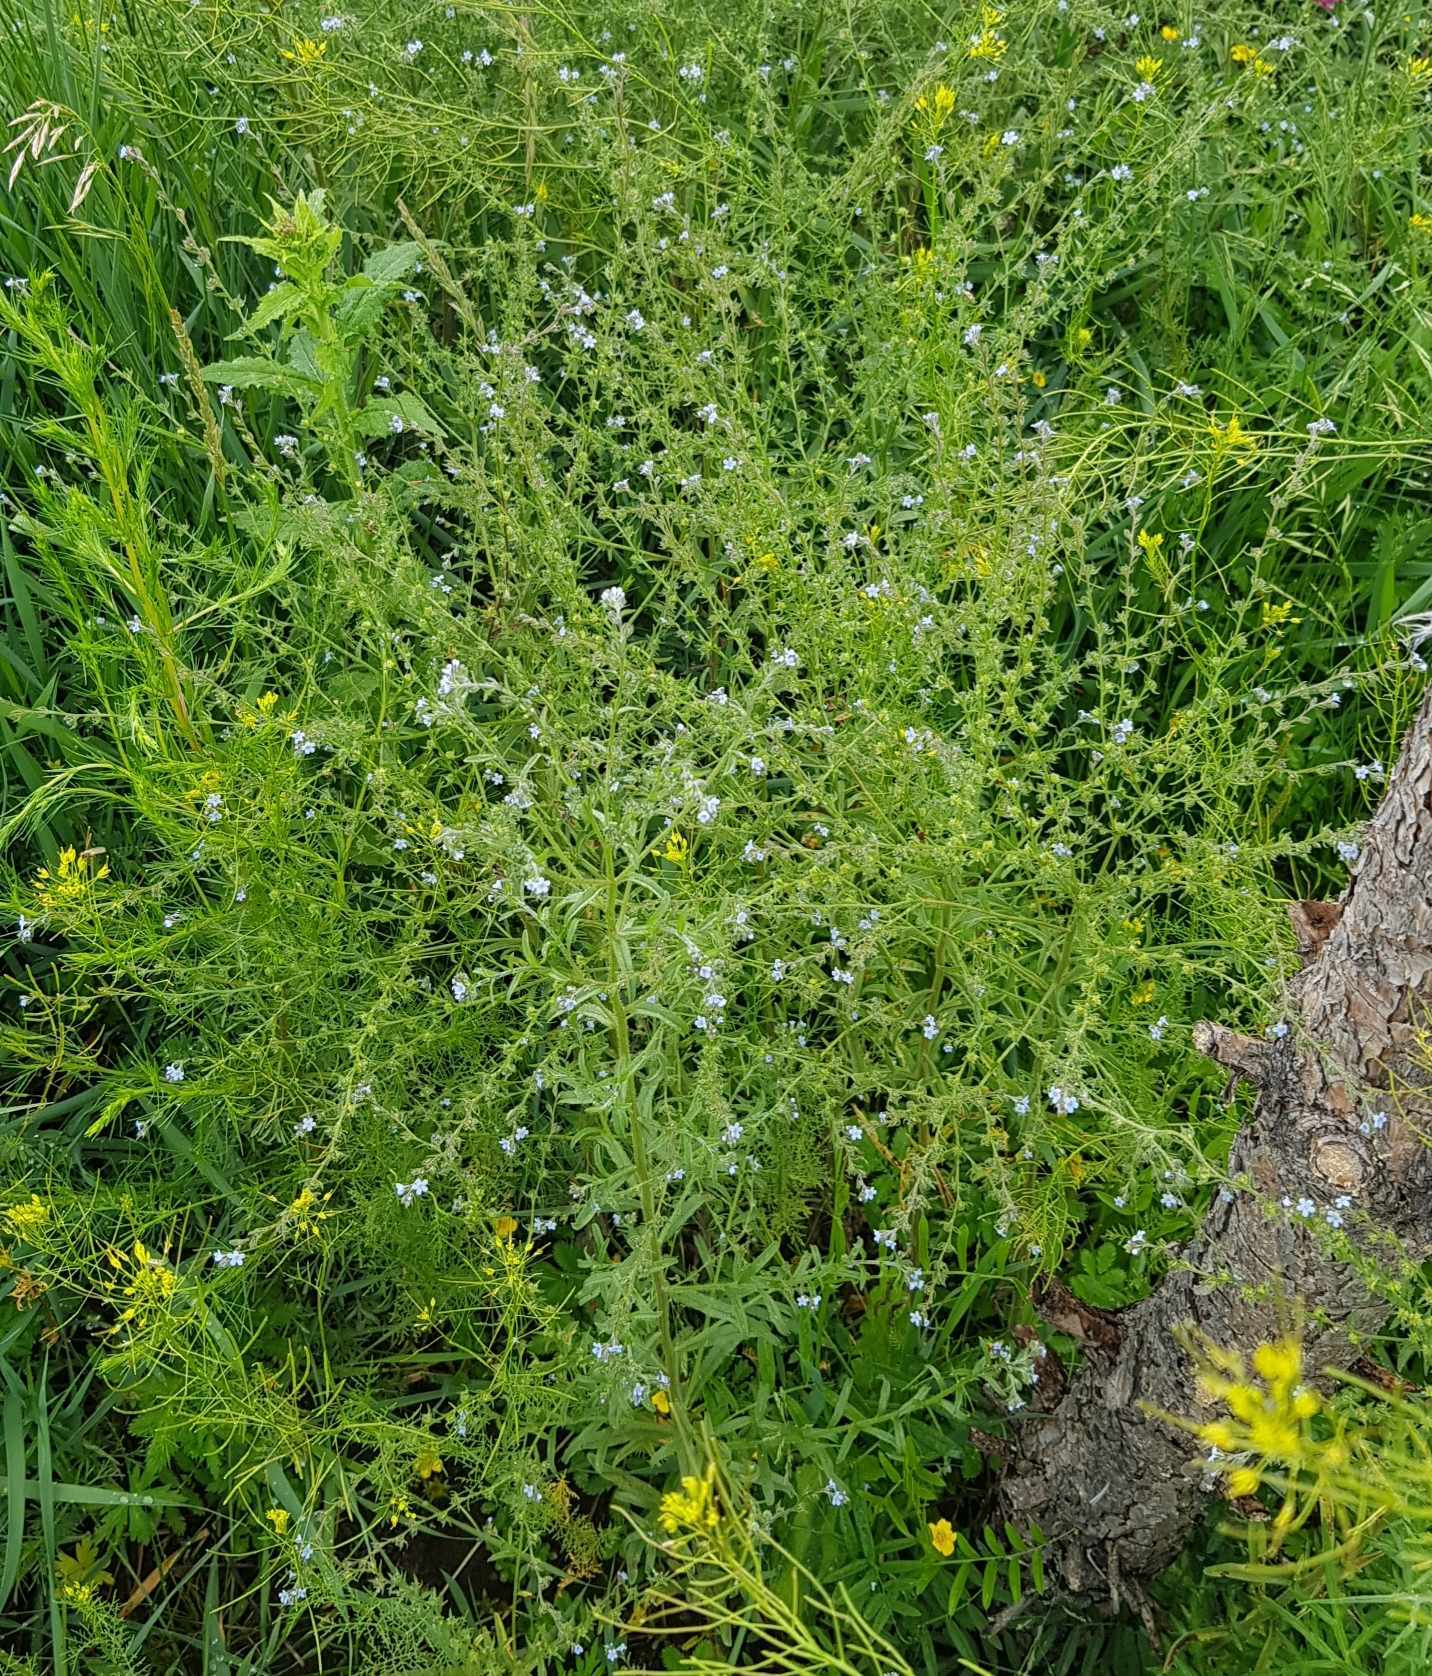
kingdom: Plantae
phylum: Tracheophyta
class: Magnoliopsida
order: Boraginales
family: Boraginaceae
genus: Lappula
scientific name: Lappula squarrosa
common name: European stickseed
